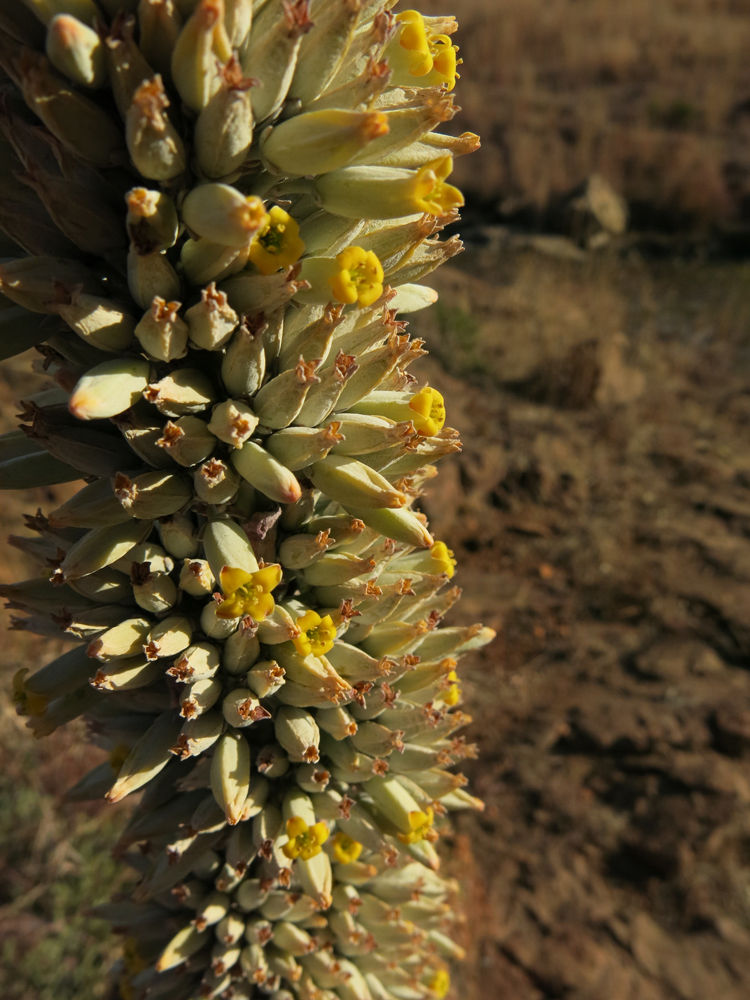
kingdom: Plantae
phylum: Tracheophyta
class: Magnoliopsida
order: Saxifragales
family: Crassulaceae
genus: Kalanchoe
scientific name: Kalanchoe thyrsiflora
